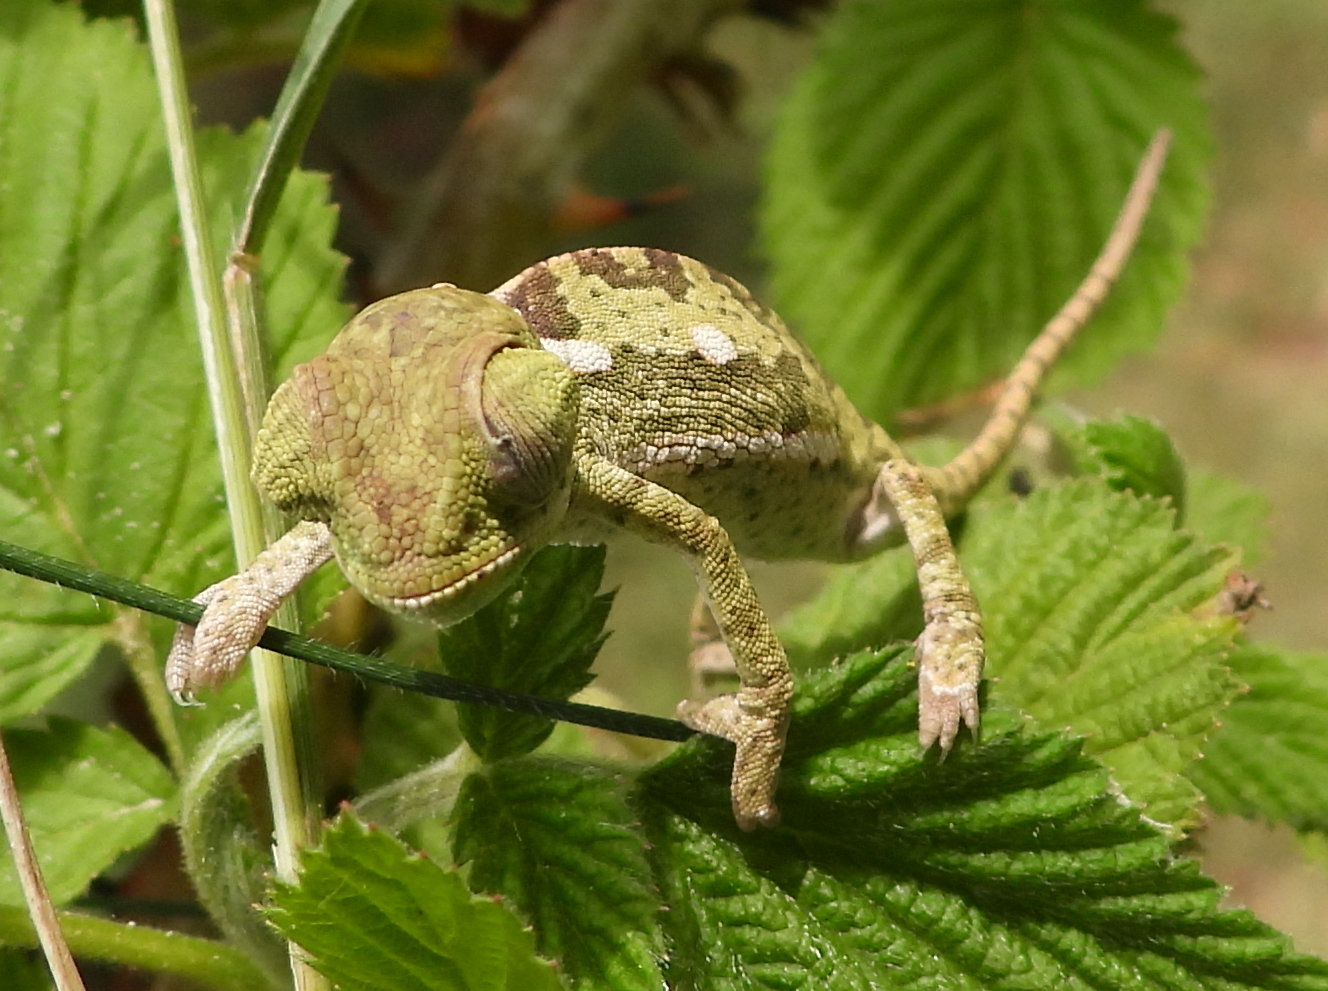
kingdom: Animalia
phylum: Chordata
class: Squamata
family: Chamaeleonidae
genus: Chamaeleo
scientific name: Chamaeleo dilepis
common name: Flapneck chameleon
